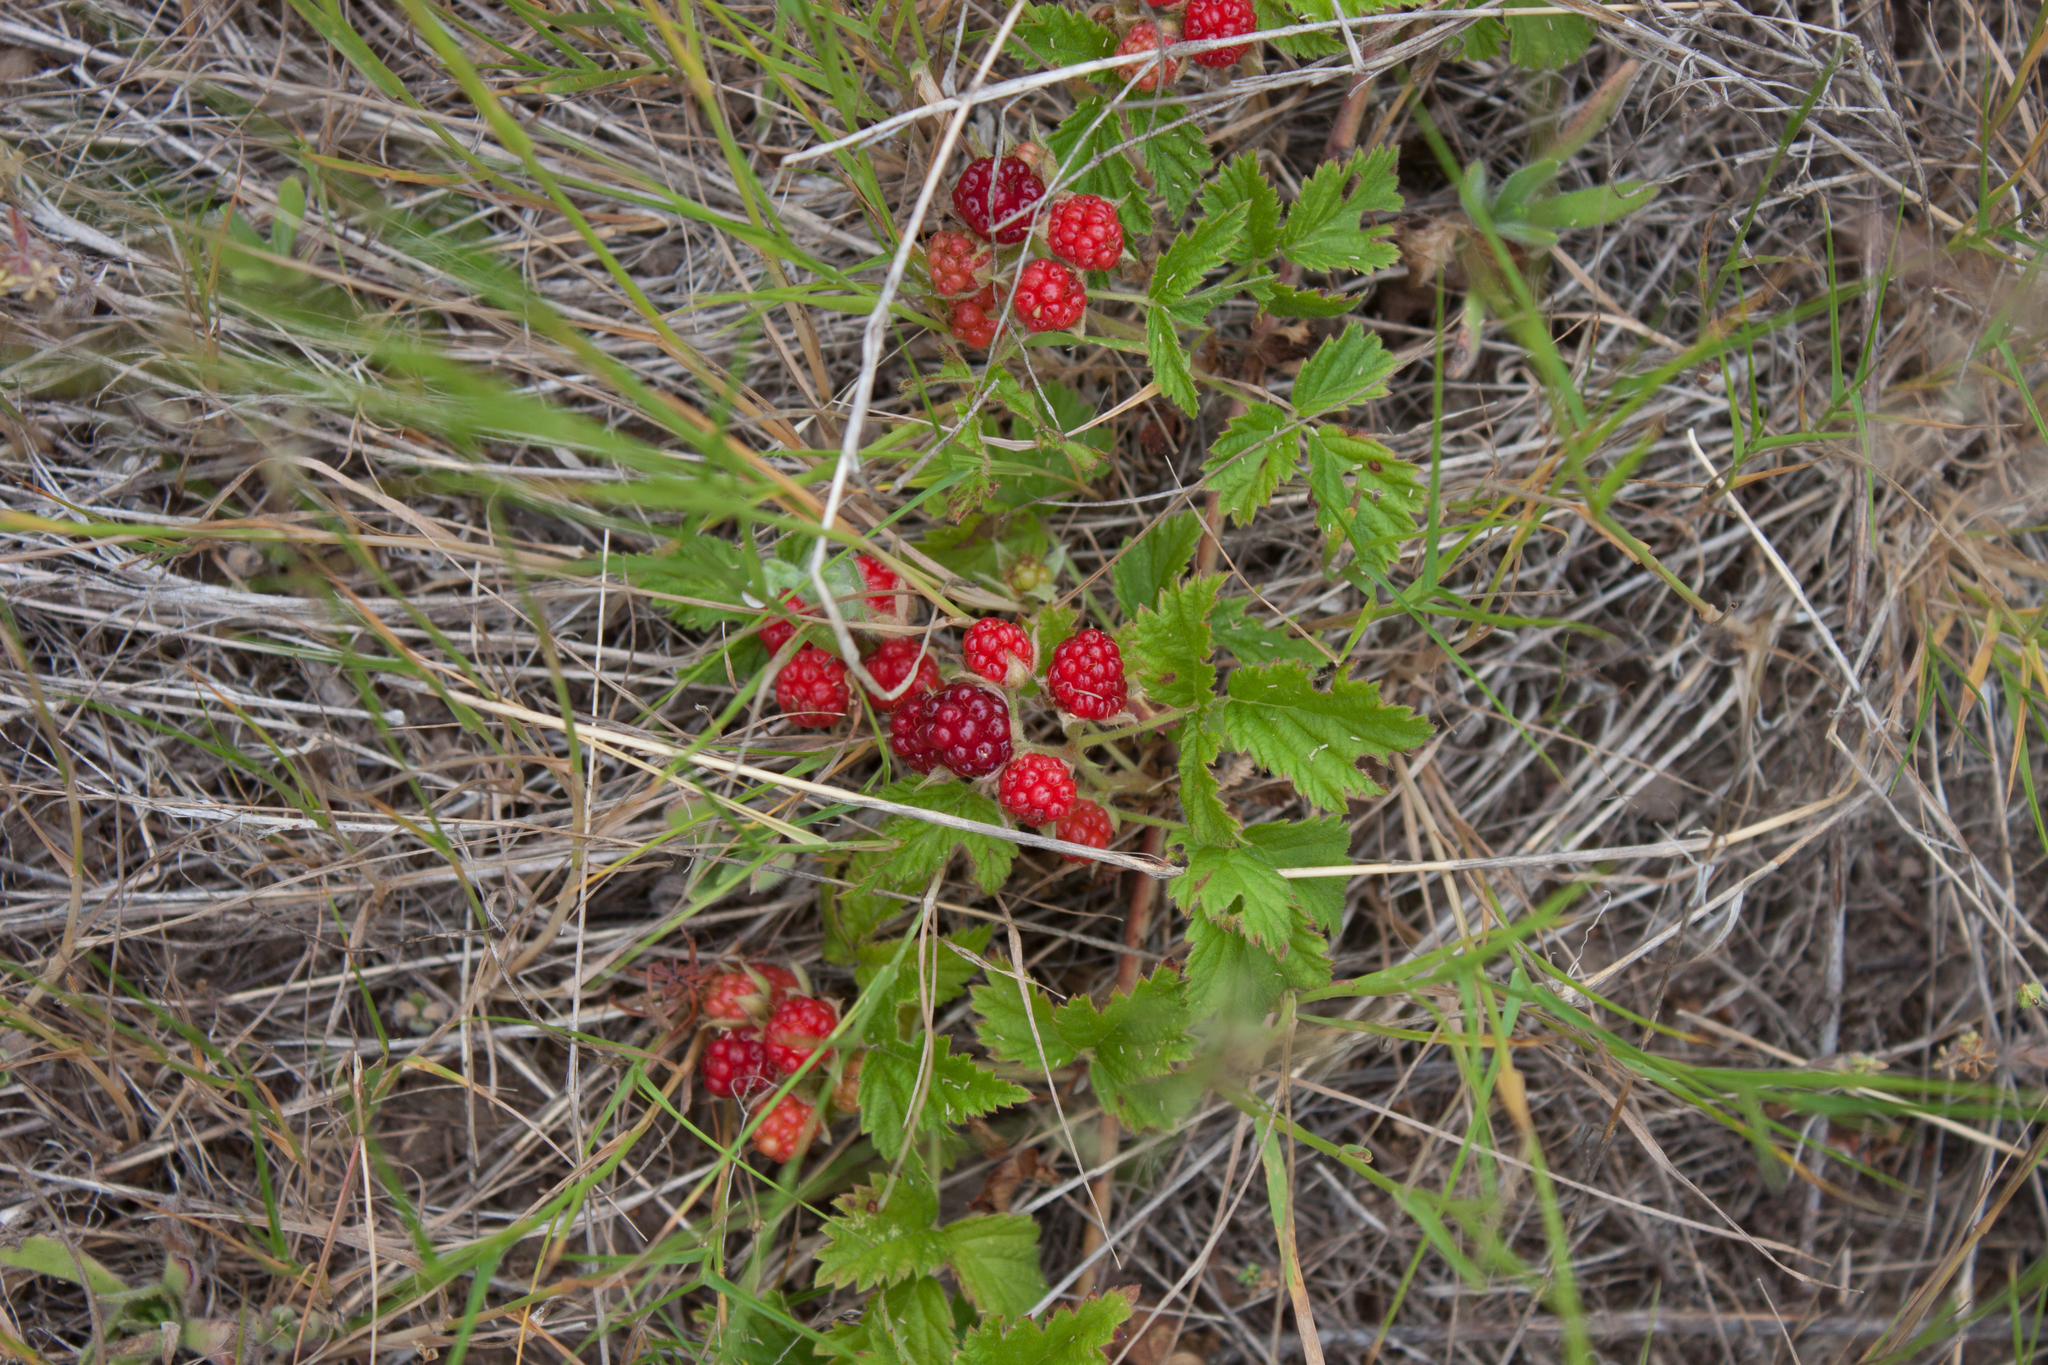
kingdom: Plantae
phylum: Tracheophyta
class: Magnoliopsida
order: Rosales
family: Rosaceae
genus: Rubus
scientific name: Rubus ursinus
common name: Pacific blackberry
